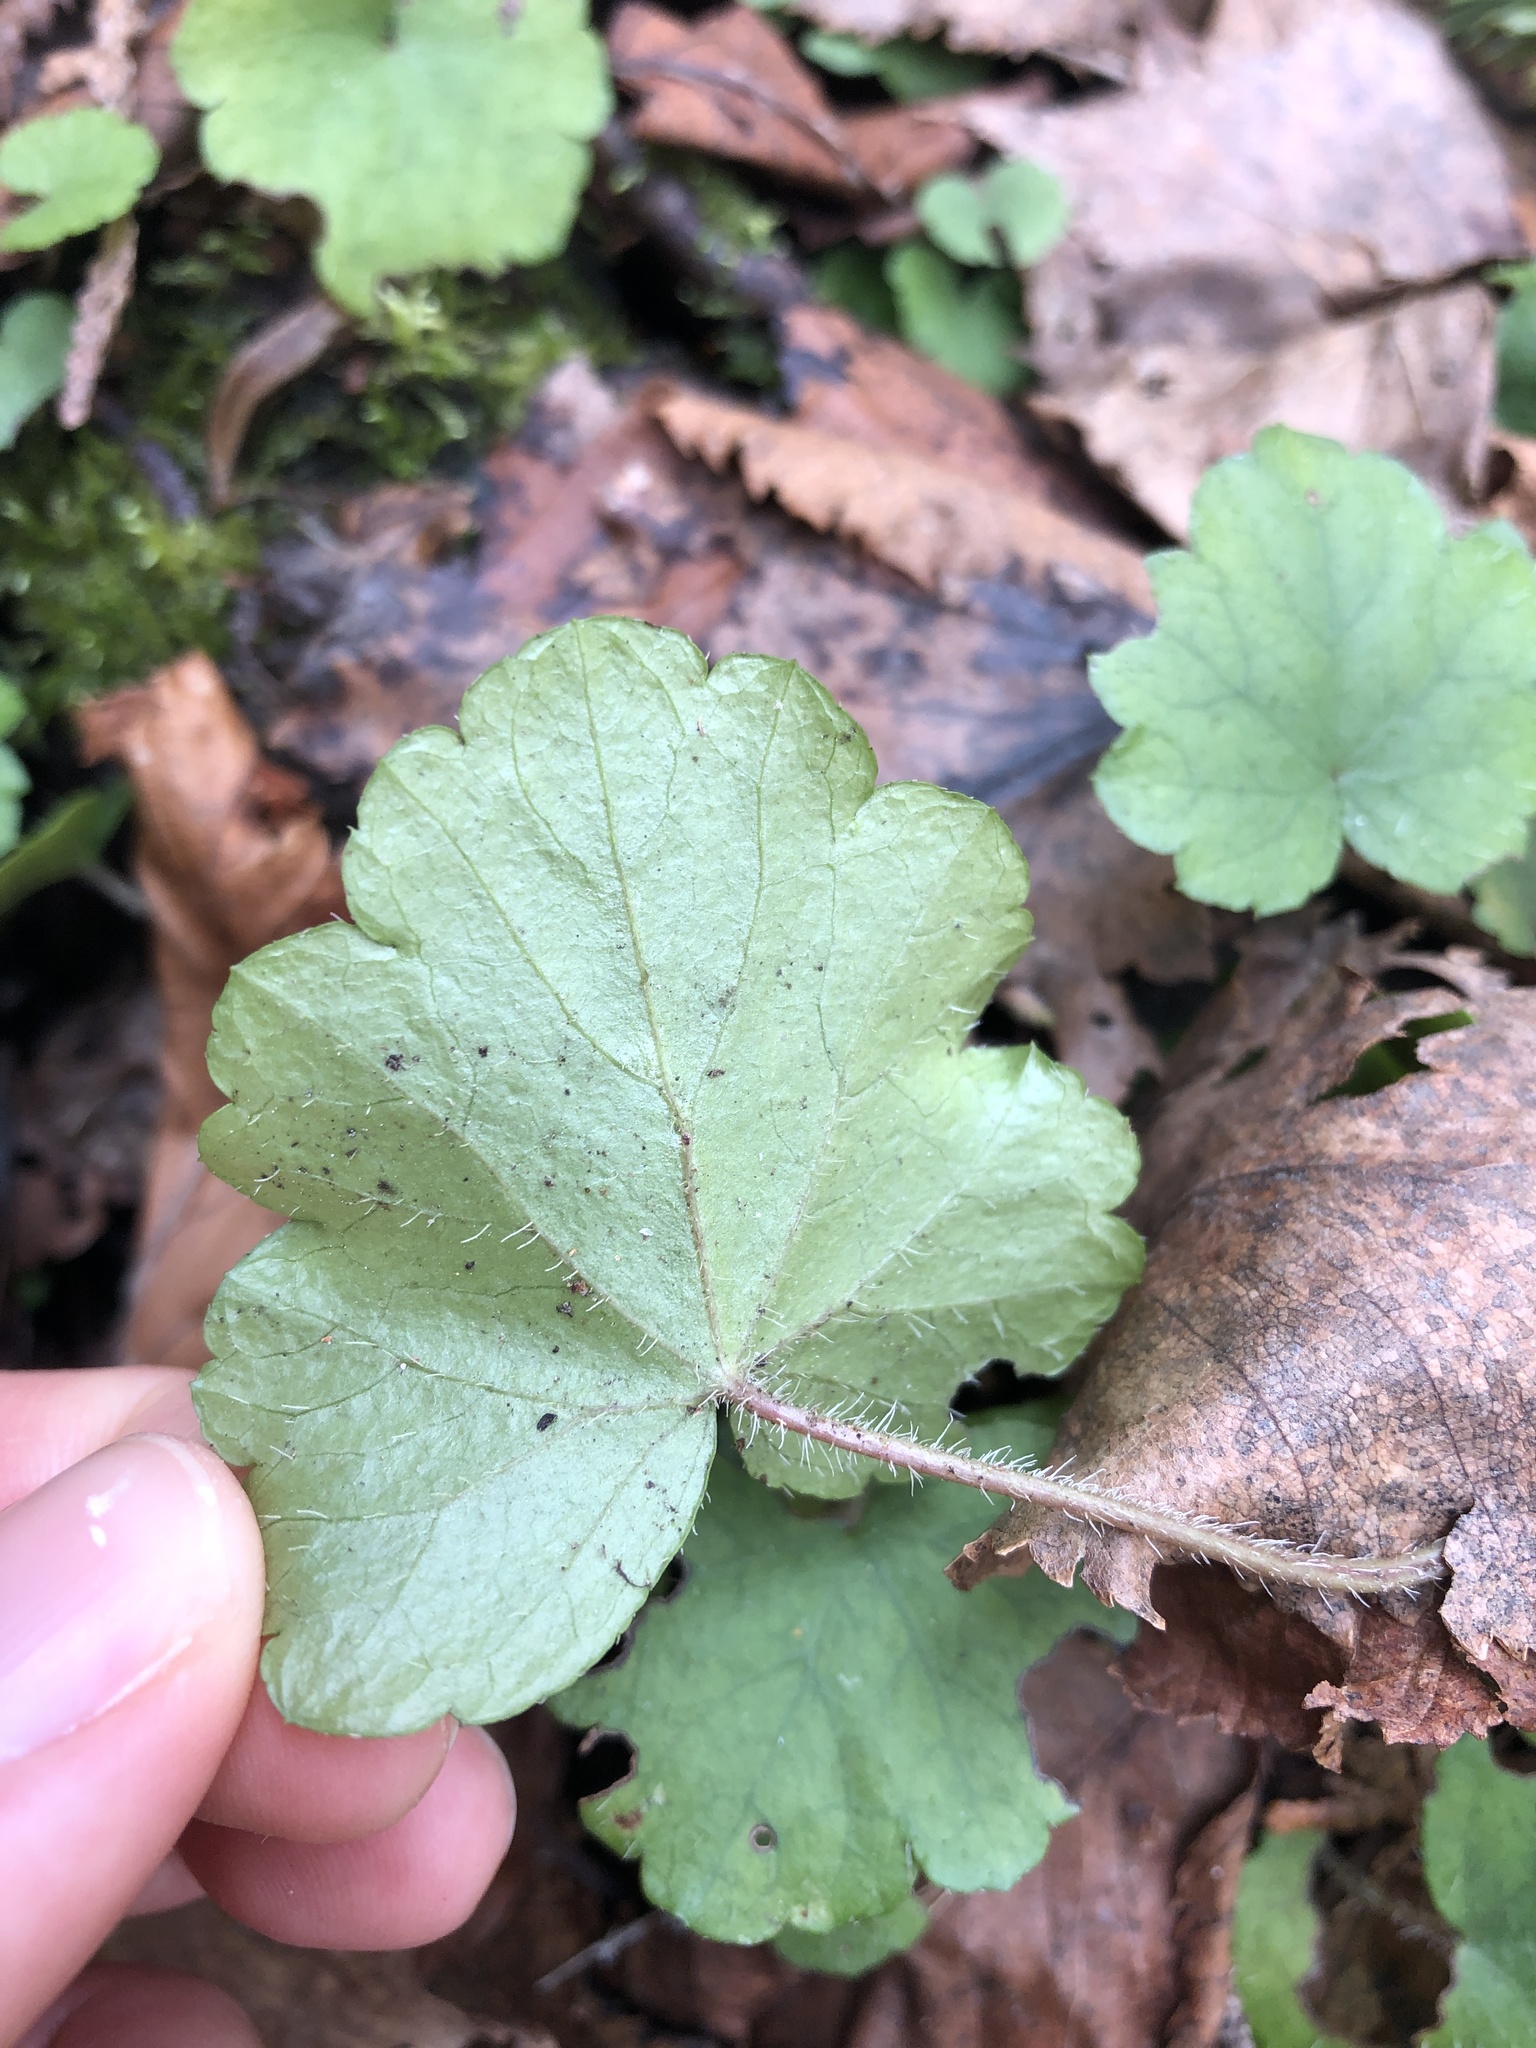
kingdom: Plantae
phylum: Tracheophyta
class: Magnoliopsida
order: Saxifragales
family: Saxifragaceae
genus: Mitella
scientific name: Mitella nuda
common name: Bare-stemmed bishop's-cap
